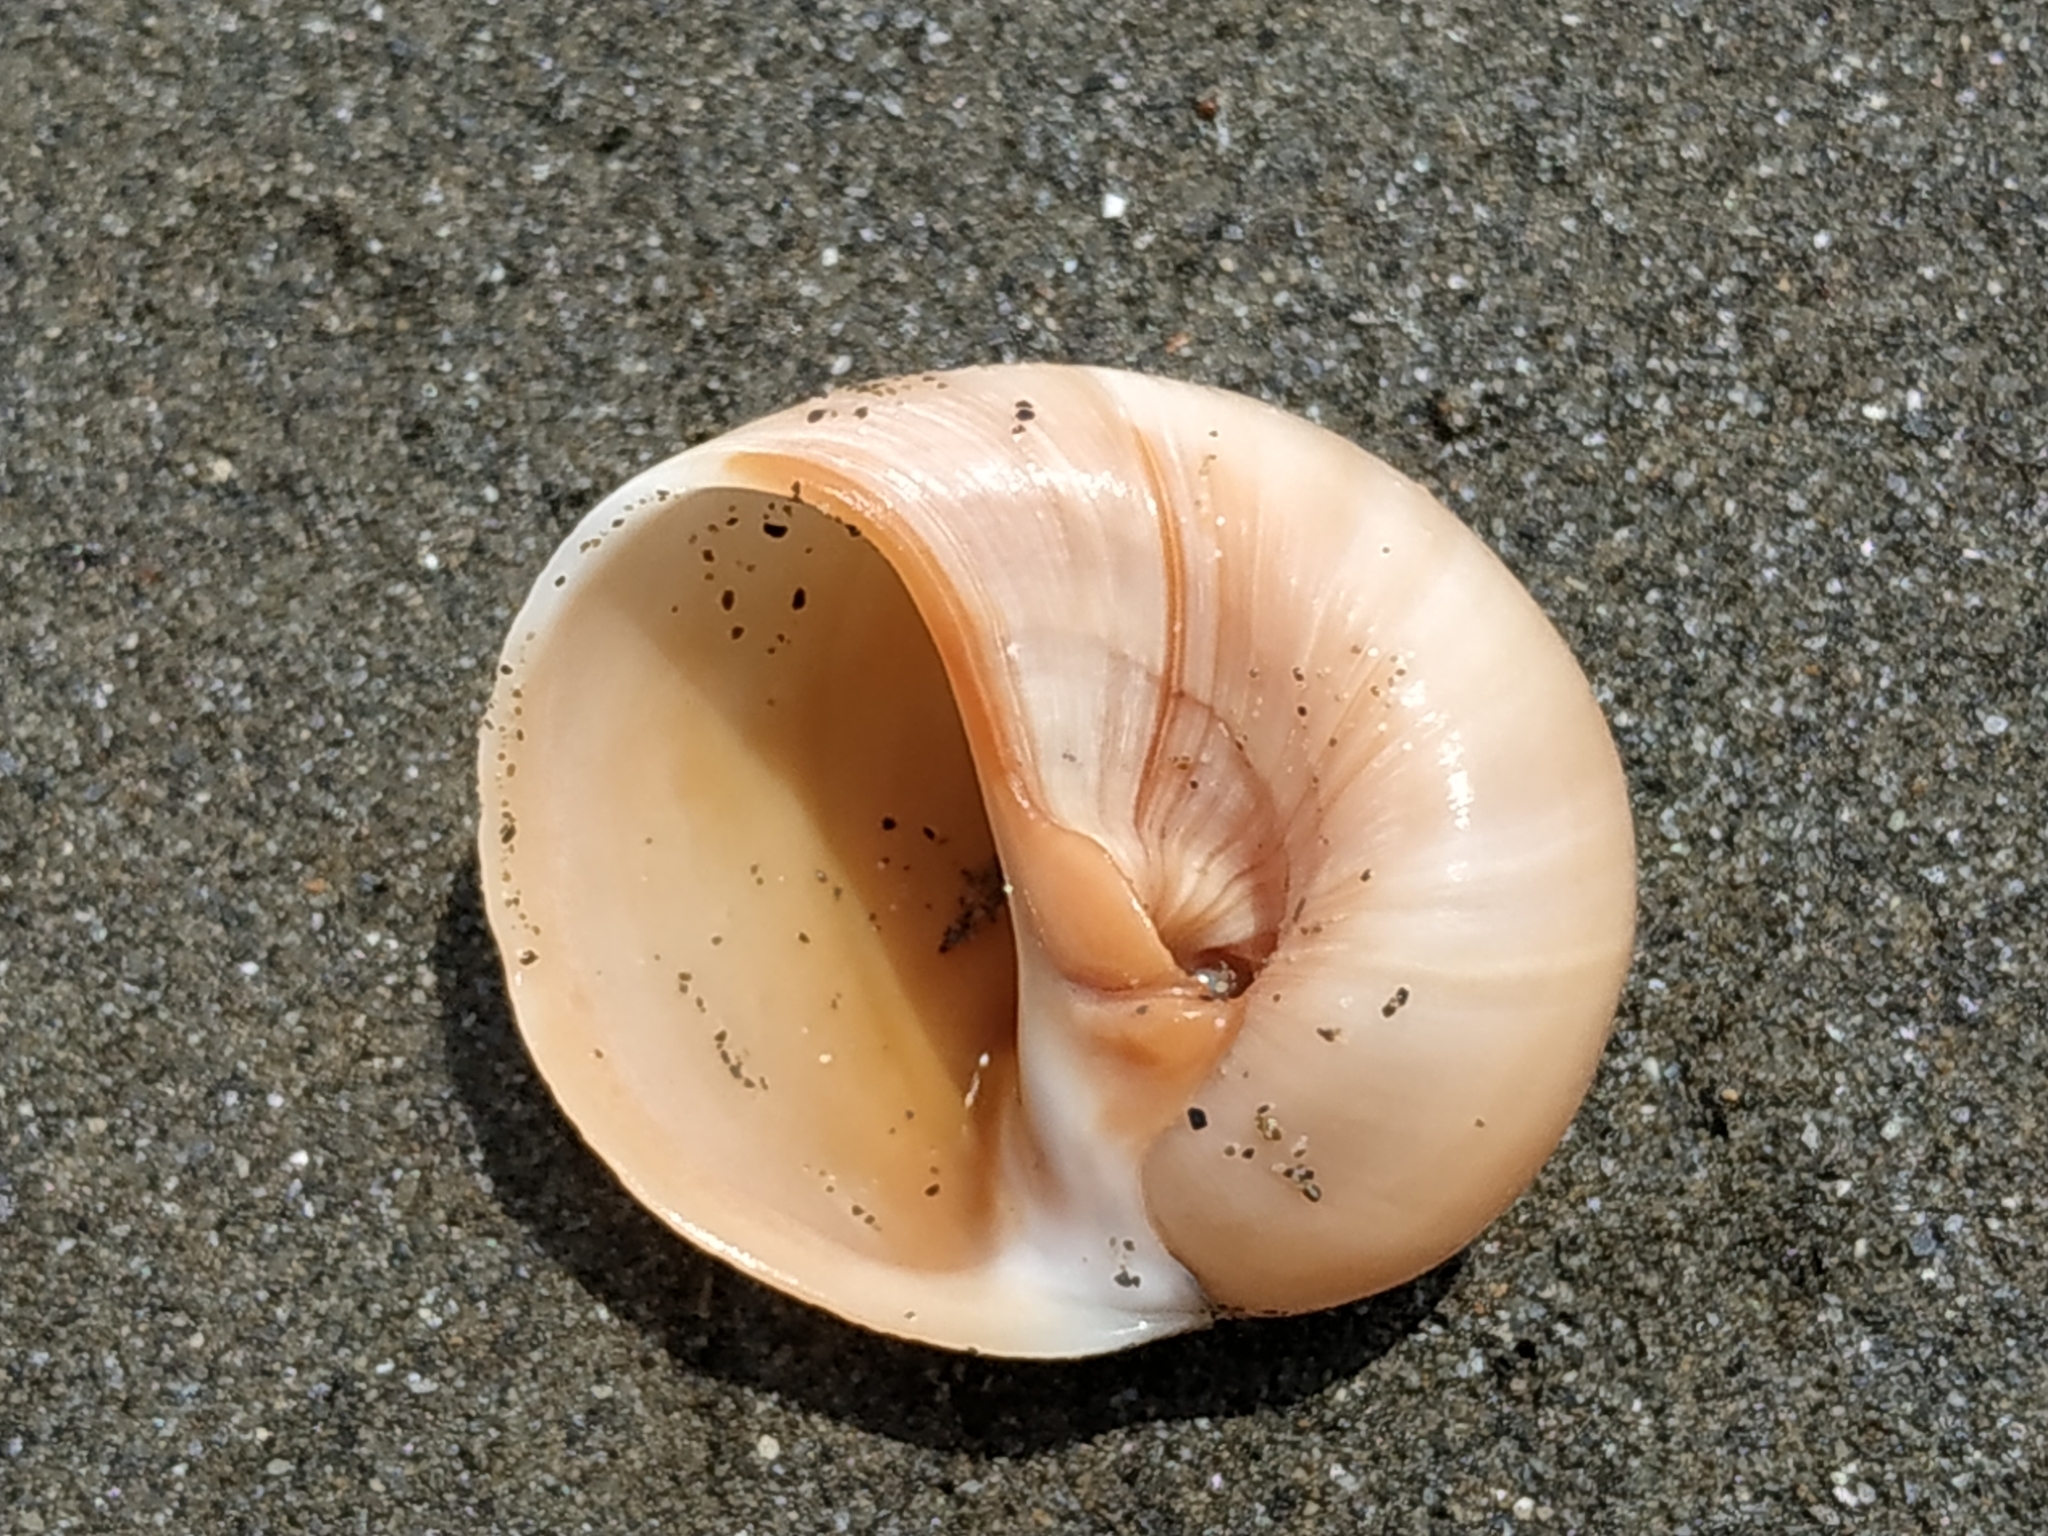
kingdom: Animalia
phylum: Mollusca
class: Gastropoda
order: Littorinimorpha
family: Naticidae
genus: Neverita
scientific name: Neverita didyma
